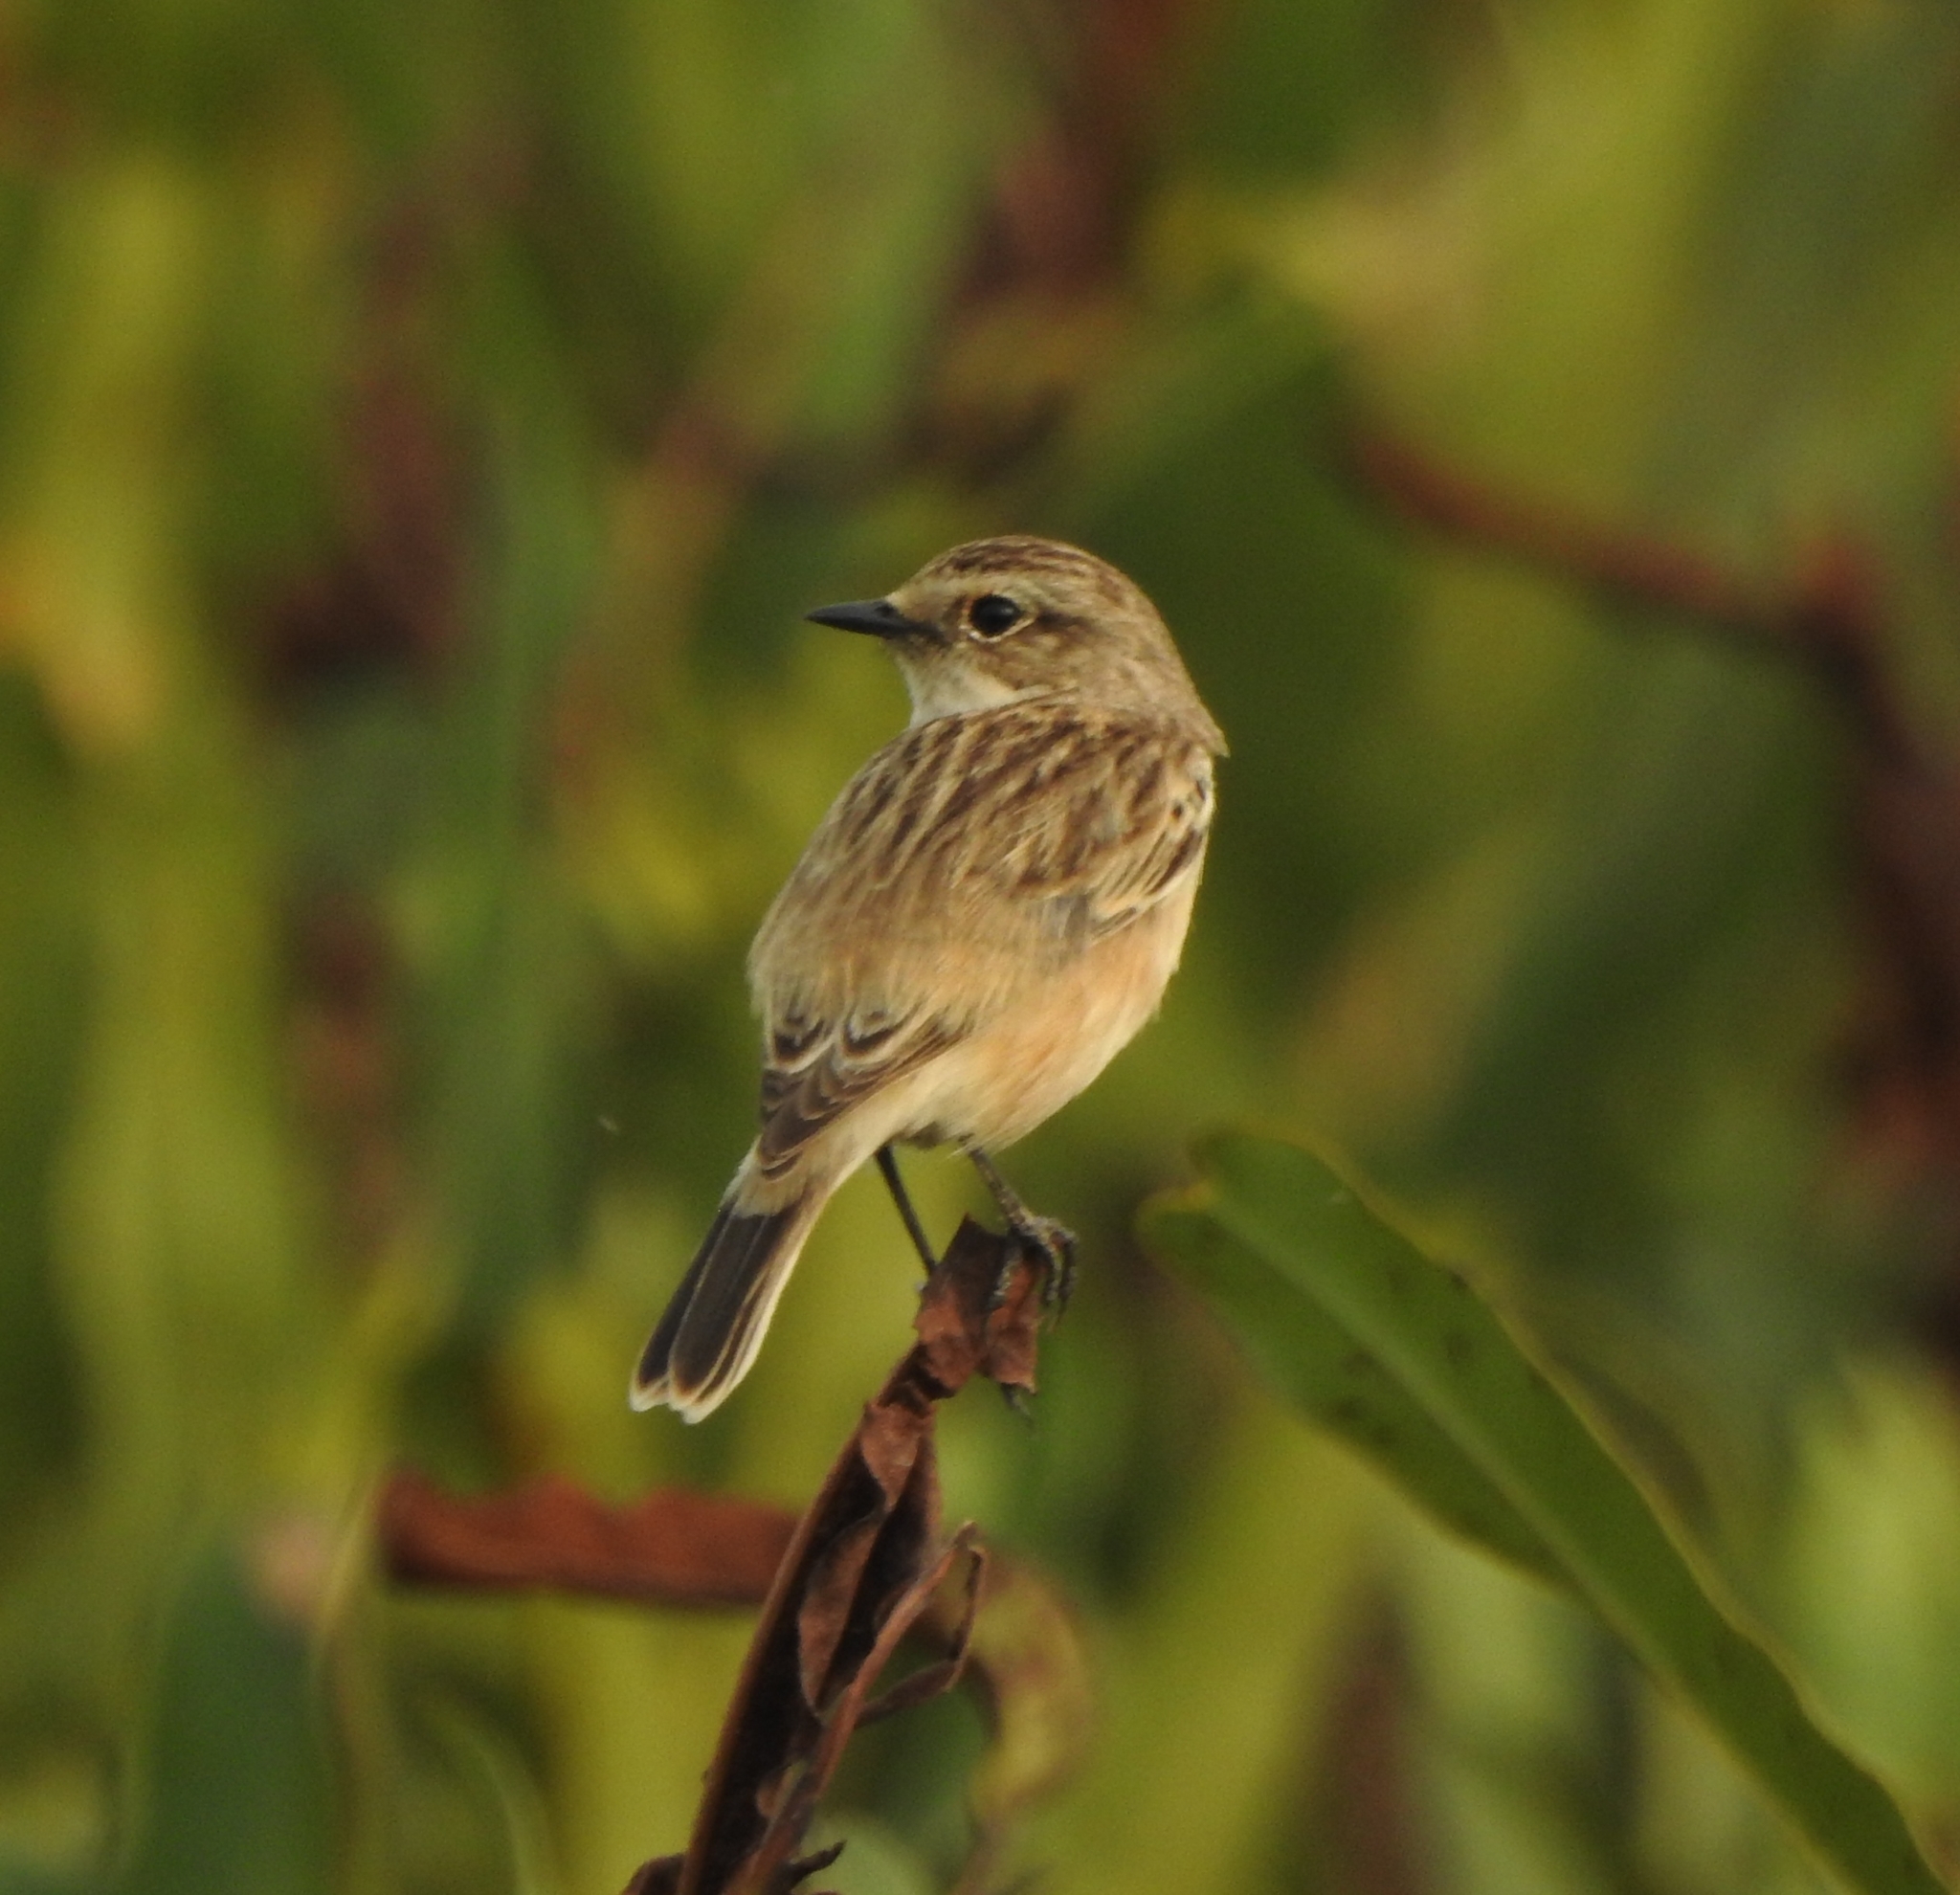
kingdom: Animalia
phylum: Chordata
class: Aves
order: Passeriformes
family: Muscicapidae
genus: Saxicola
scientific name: Saxicola maurus
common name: Siberian stonechat
